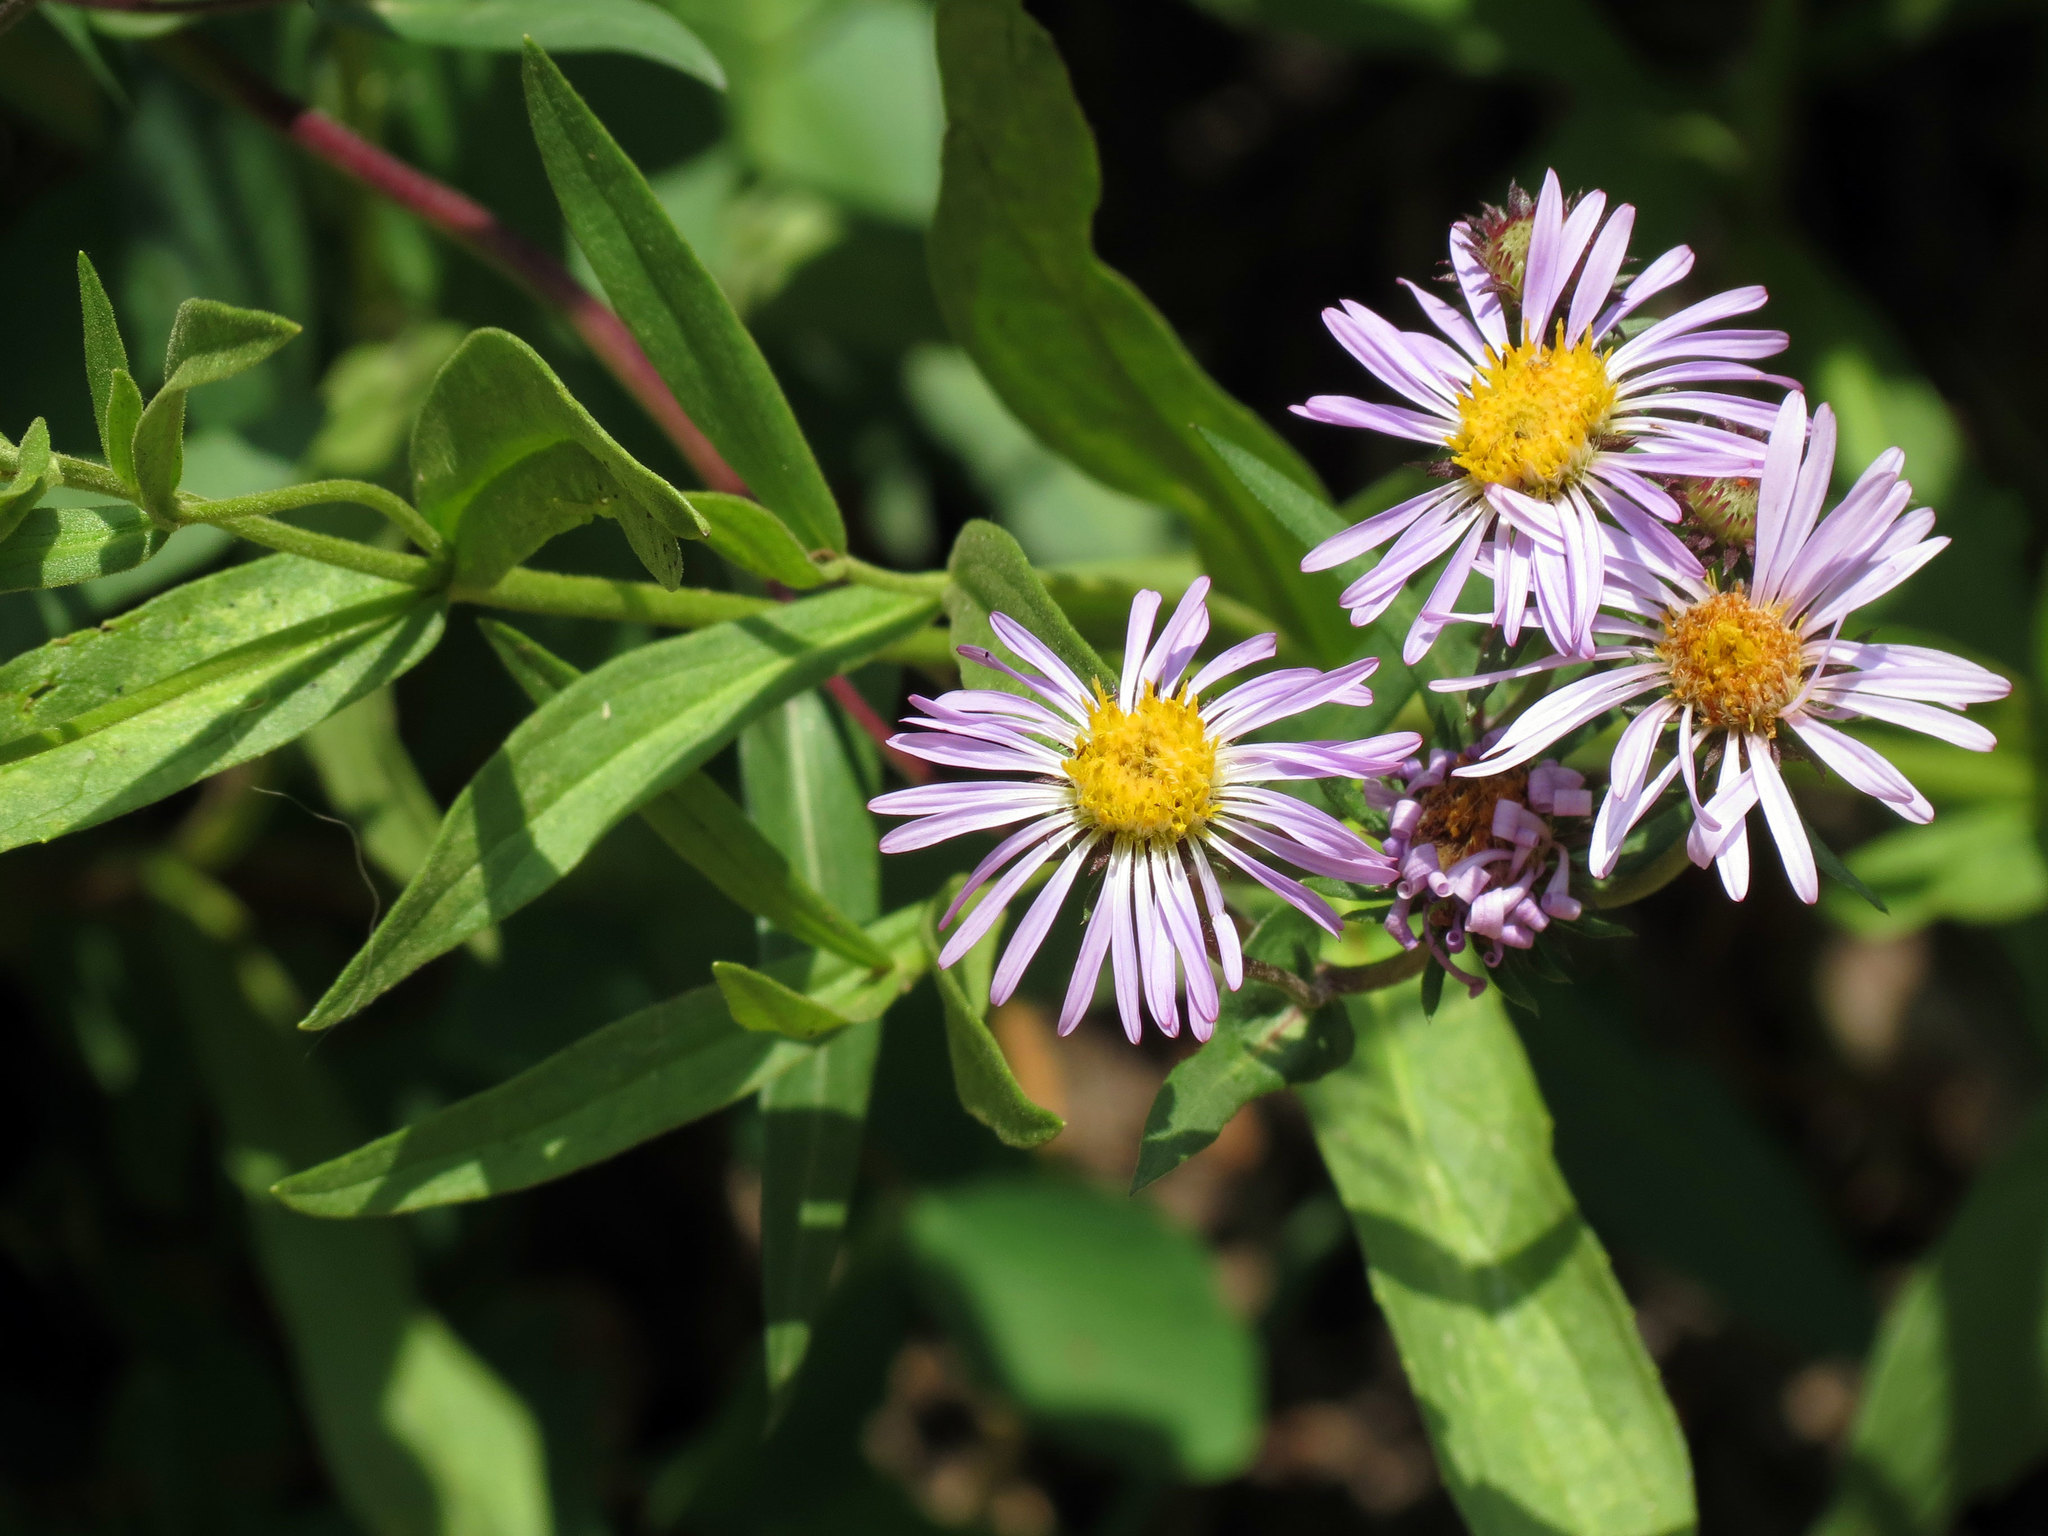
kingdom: Plantae
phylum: Tracheophyta
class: Magnoliopsida
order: Asterales
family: Asteraceae
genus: Eurybia
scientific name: Eurybia integrifolia
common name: Thick-stem aster
